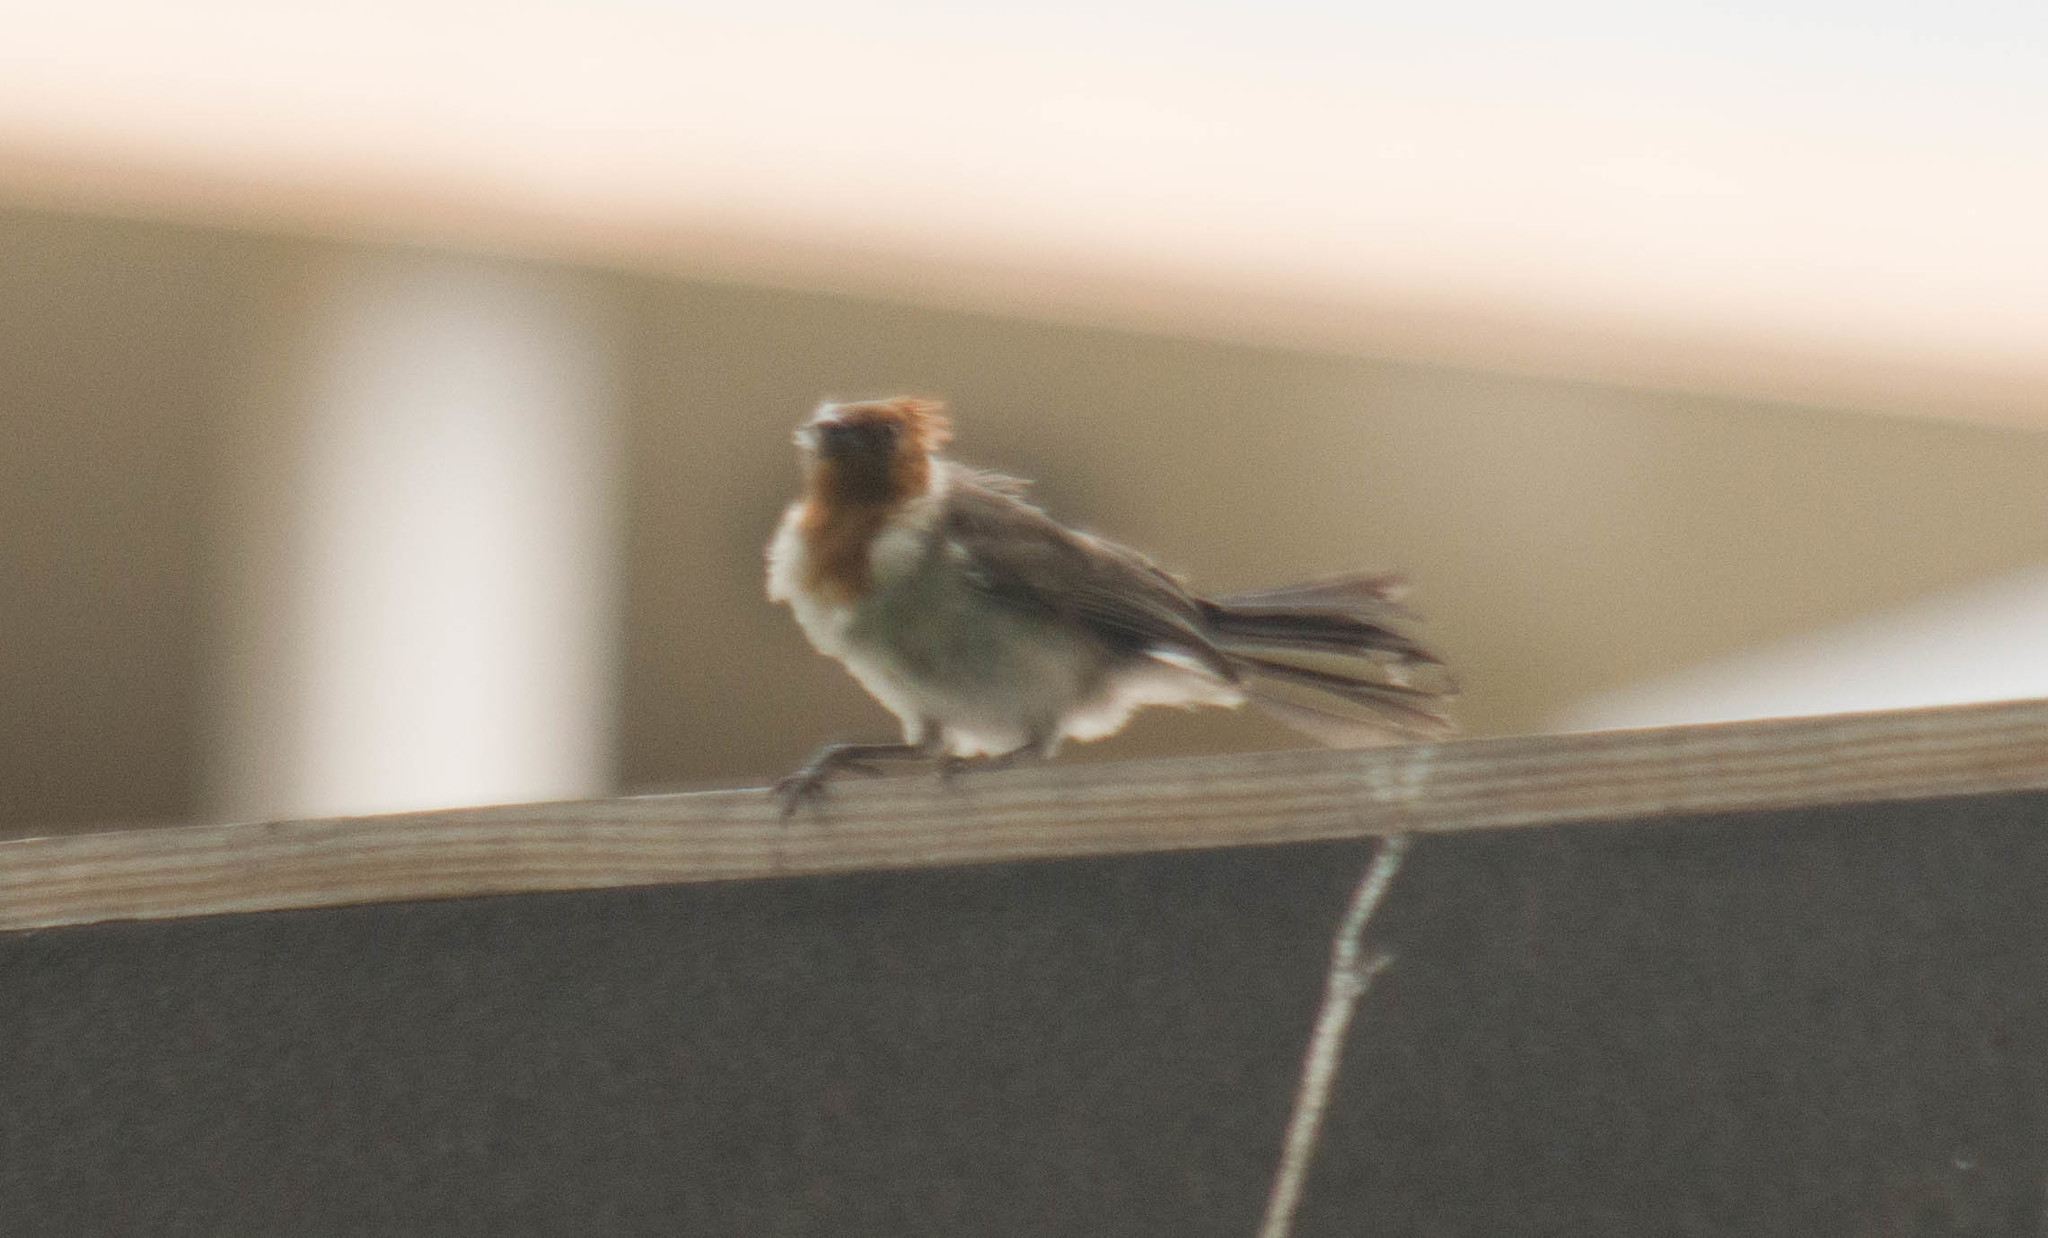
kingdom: Animalia
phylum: Chordata
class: Aves
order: Passeriformes
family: Thraupidae
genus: Paroaria
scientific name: Paroaria coronata
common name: Red-crested cardinal
